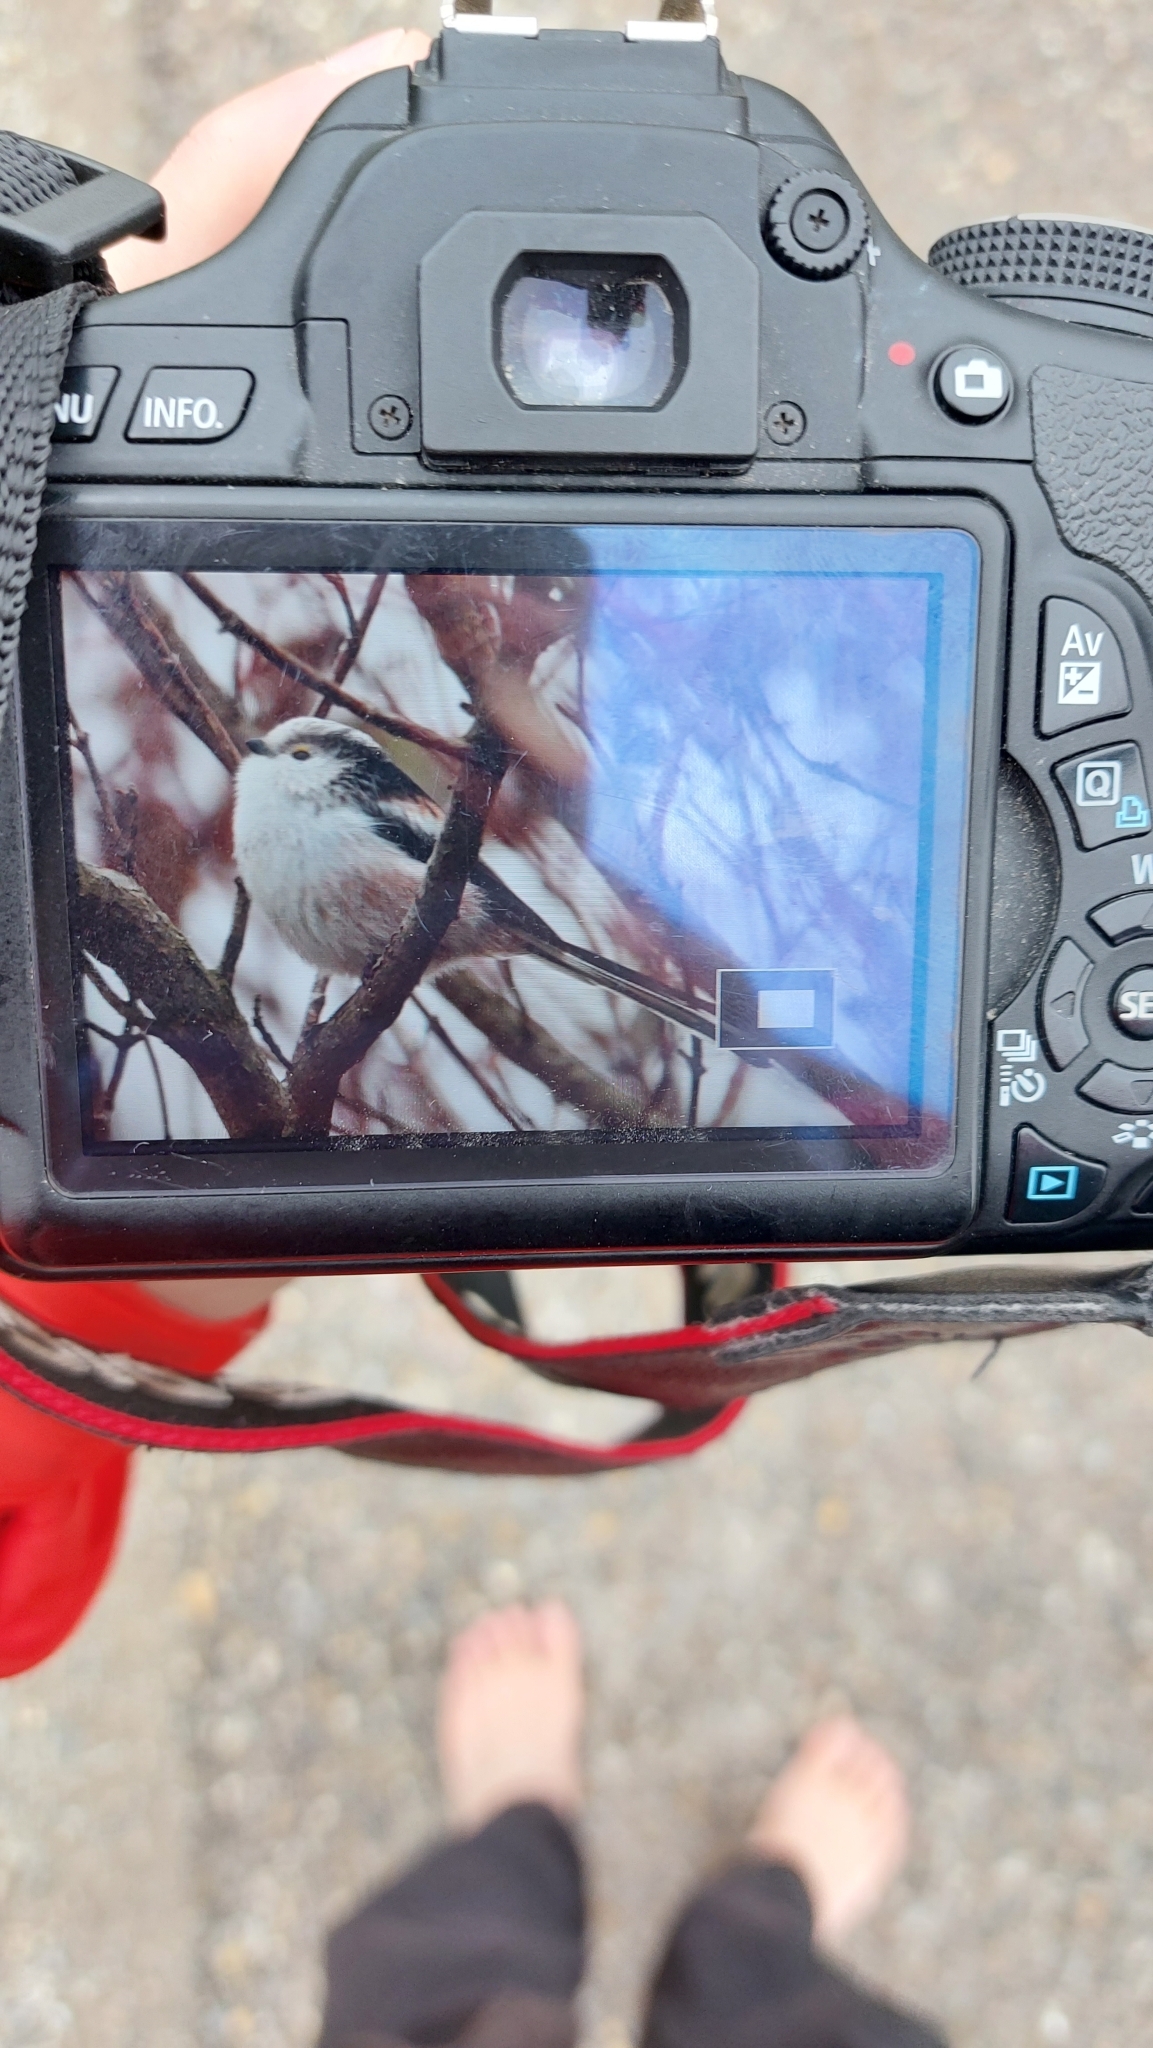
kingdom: Animalia
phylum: Chordata
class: Aves
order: Passeriformes
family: Aegithalidae
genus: Aegithalos
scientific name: Aegithalos caudatus
